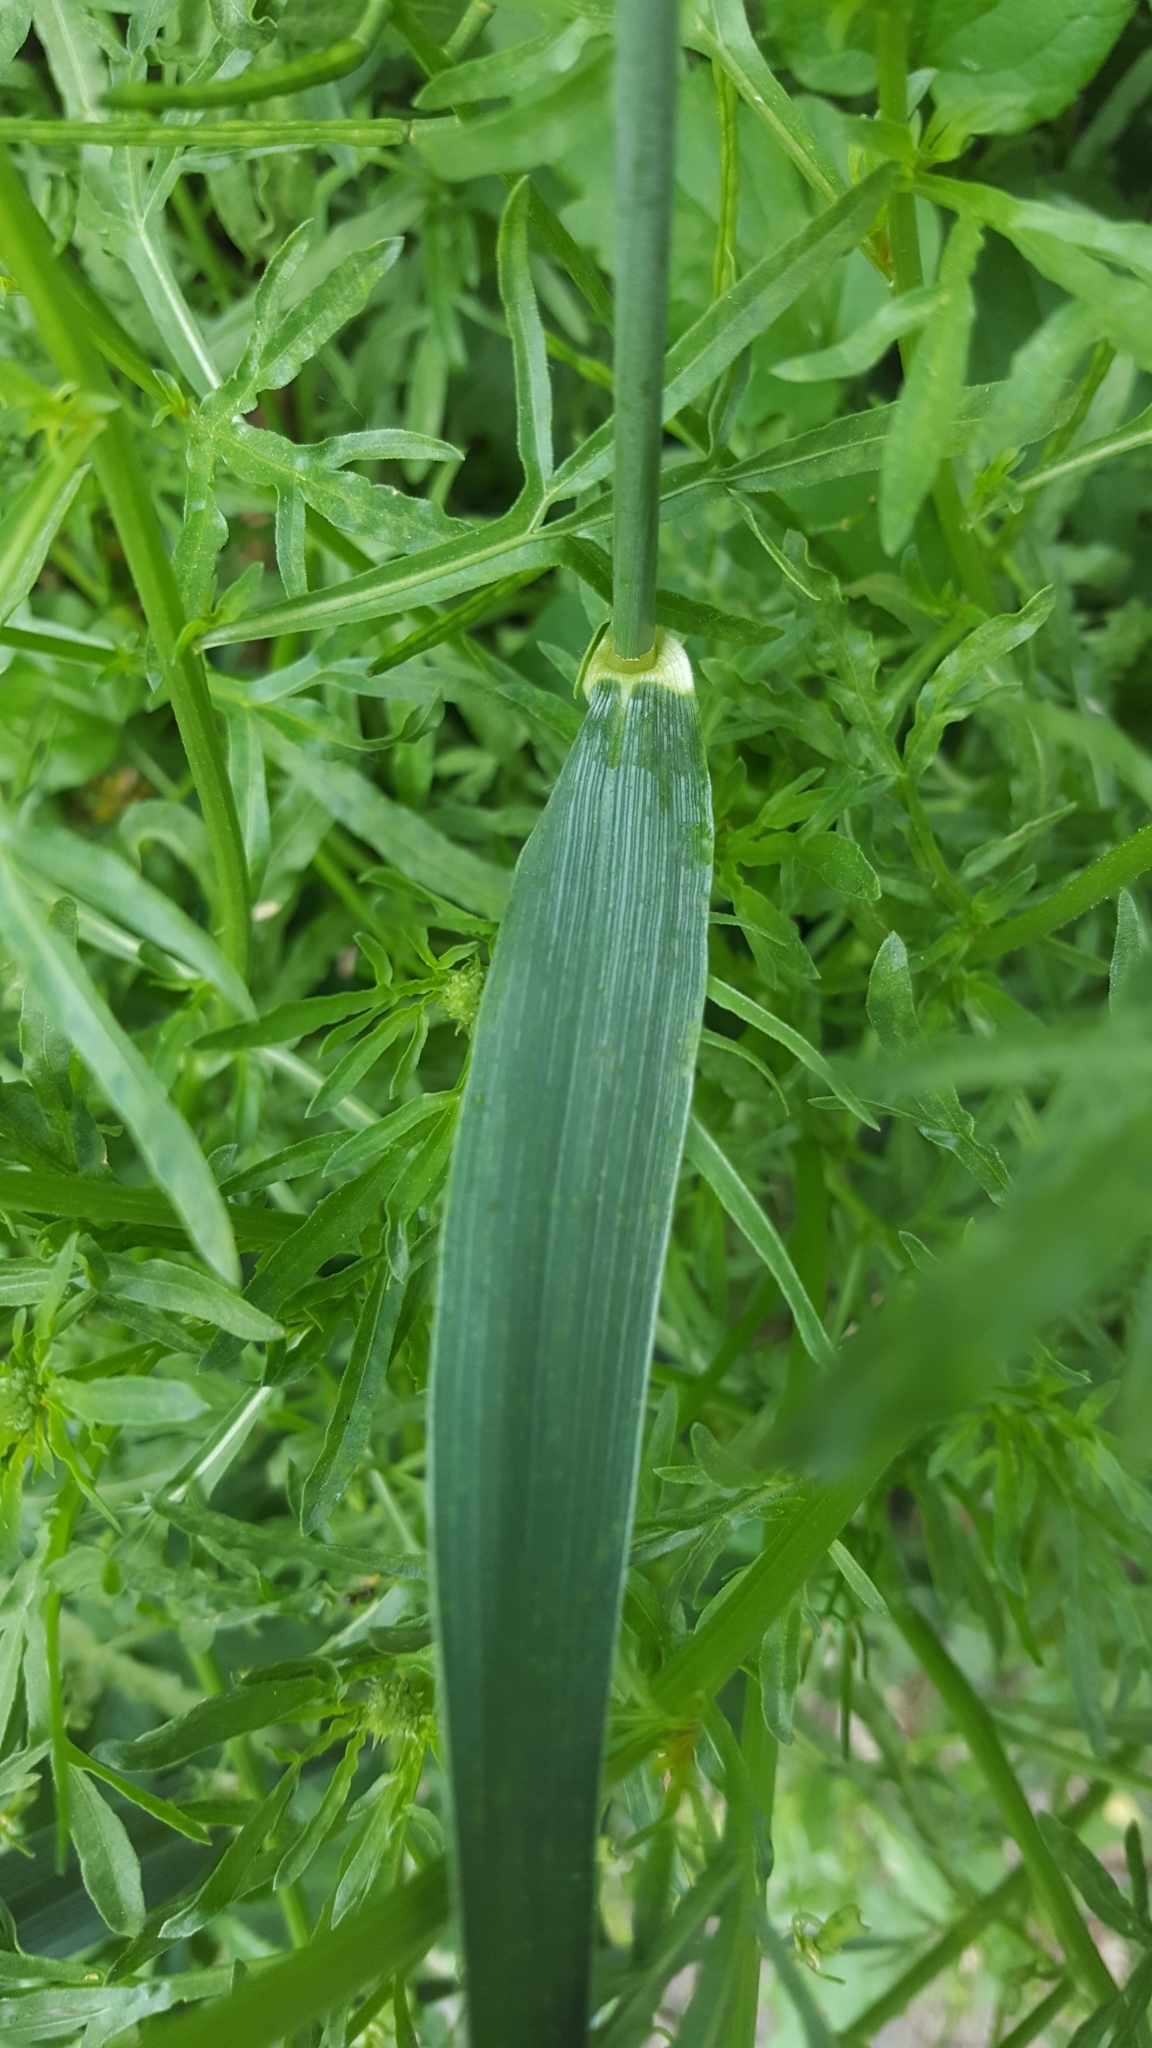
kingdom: Plantae
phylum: Tracheophyta
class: Liliopsida
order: Poales
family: Poaceae
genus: Triticum
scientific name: Triticum aestivum
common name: Common wheat
